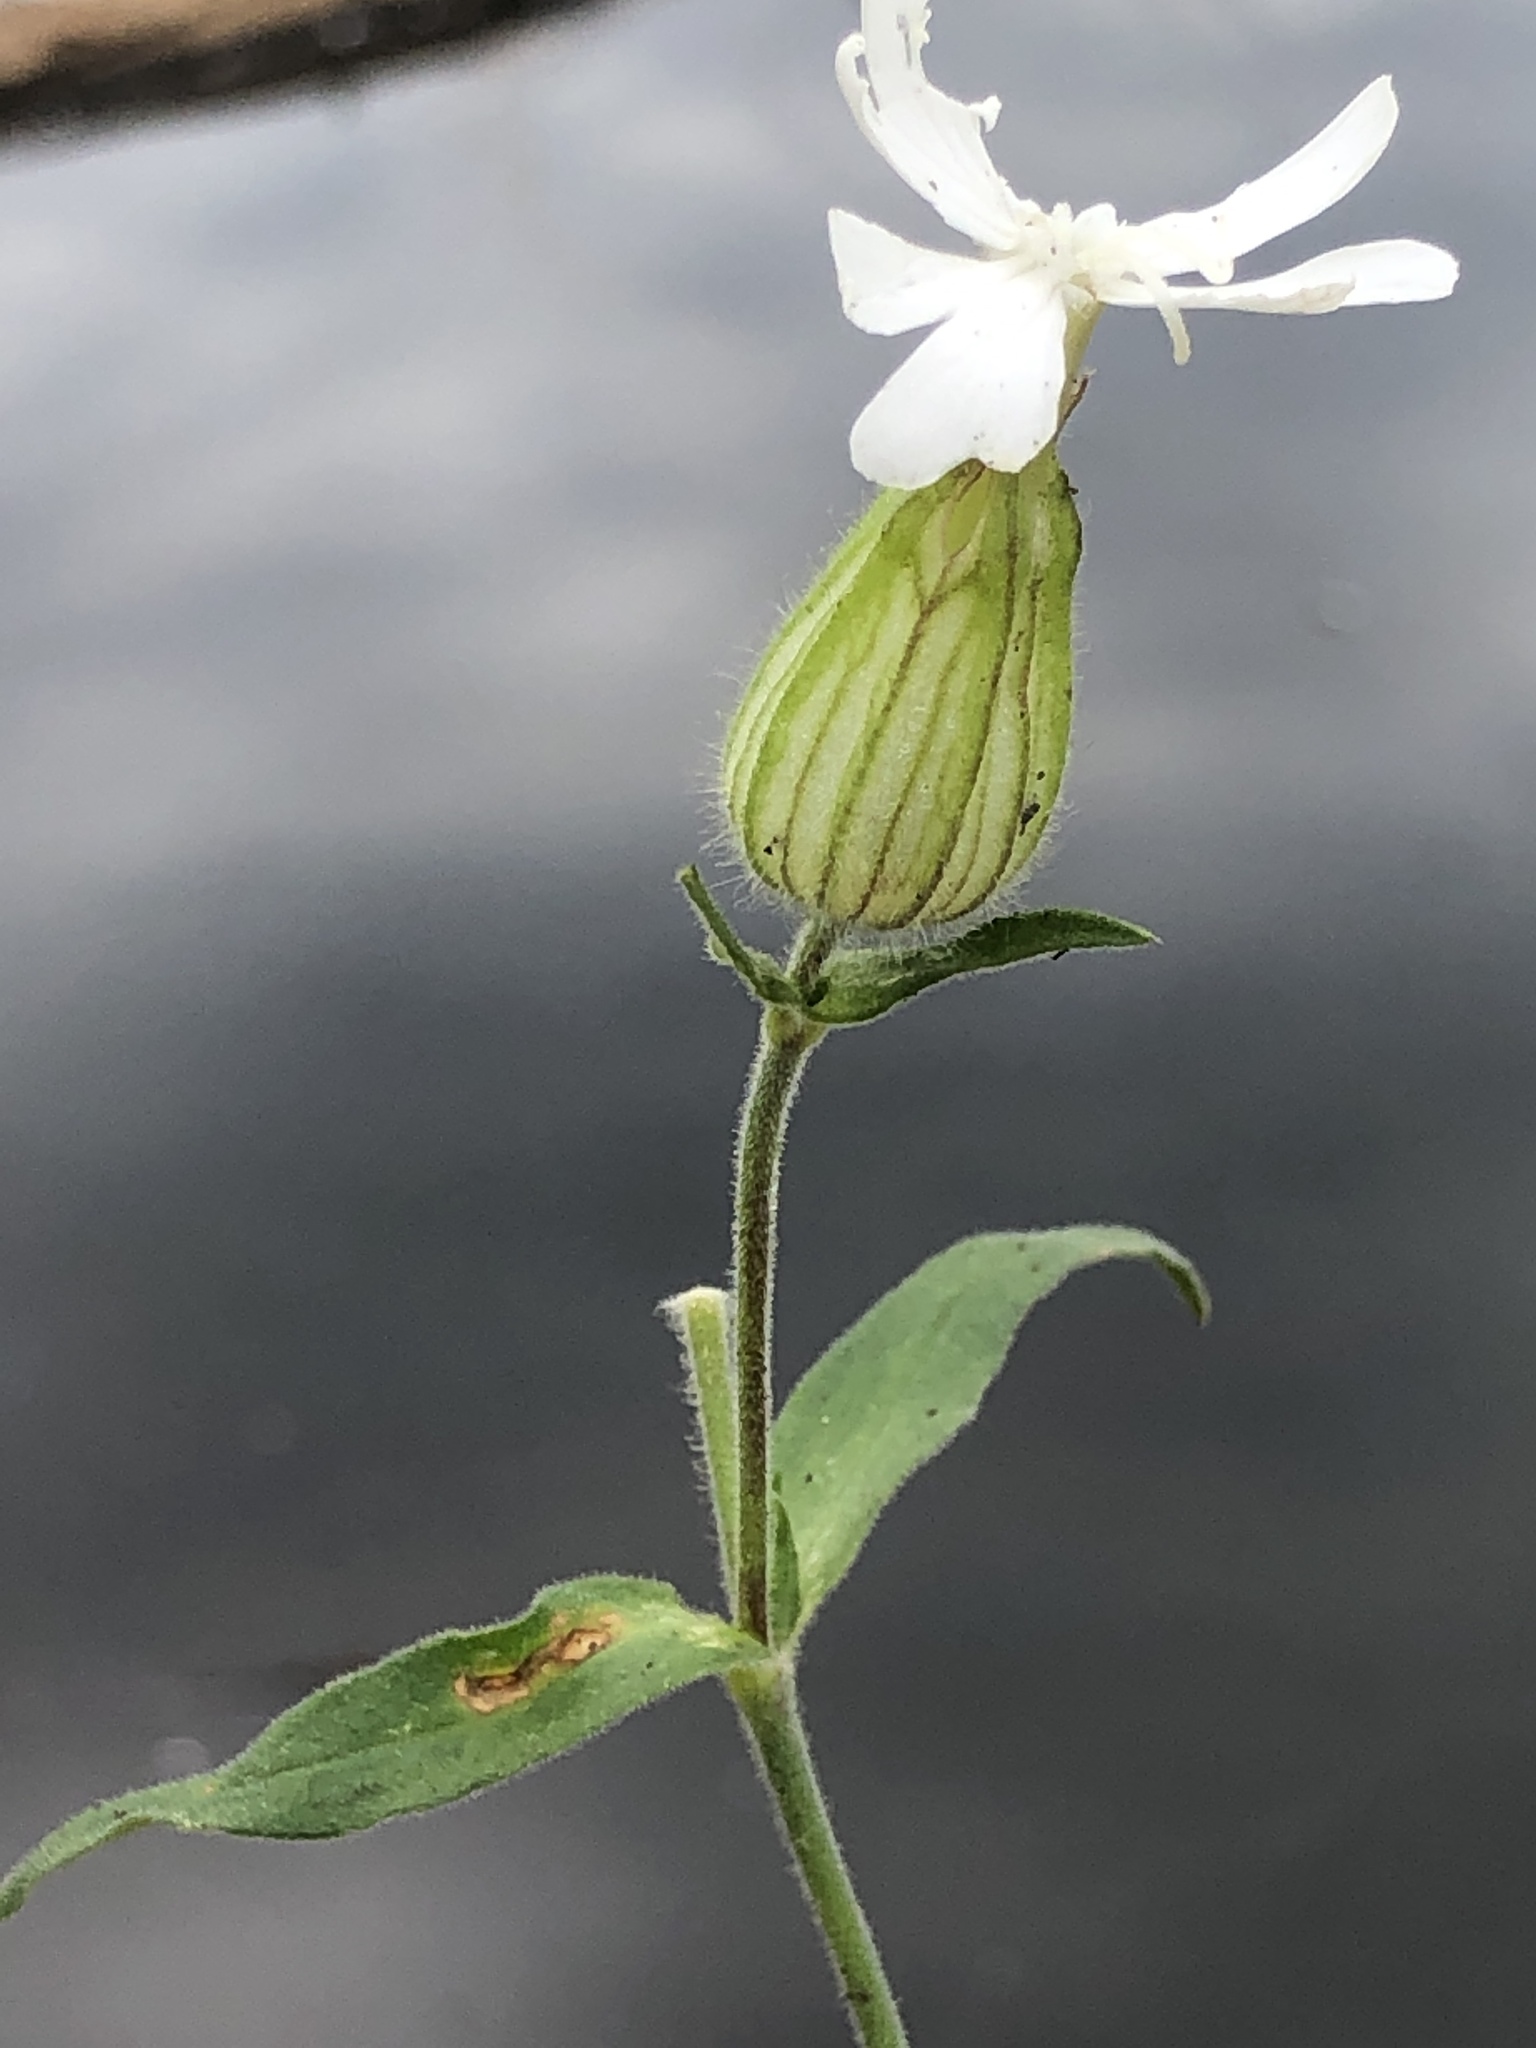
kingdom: Plantae
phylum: Tracheophyta
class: Magnoliopsida
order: Caryophyllales
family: Caryophyllaceae
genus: Silene
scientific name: Silene latifolia
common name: White campion
